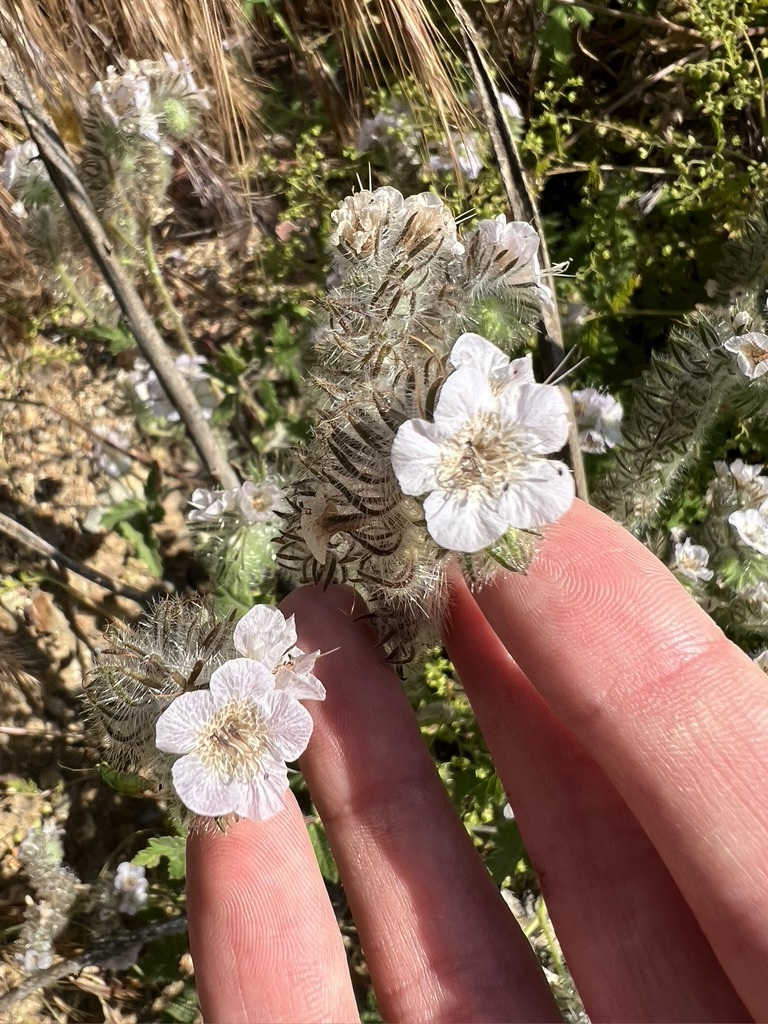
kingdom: Plantae
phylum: Tracheophyta
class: Magnoliopsida
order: Boraginales
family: Hydrophyllaceae
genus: Phacelia
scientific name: Phacelia cicutaria
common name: Caterpillar phacelia
